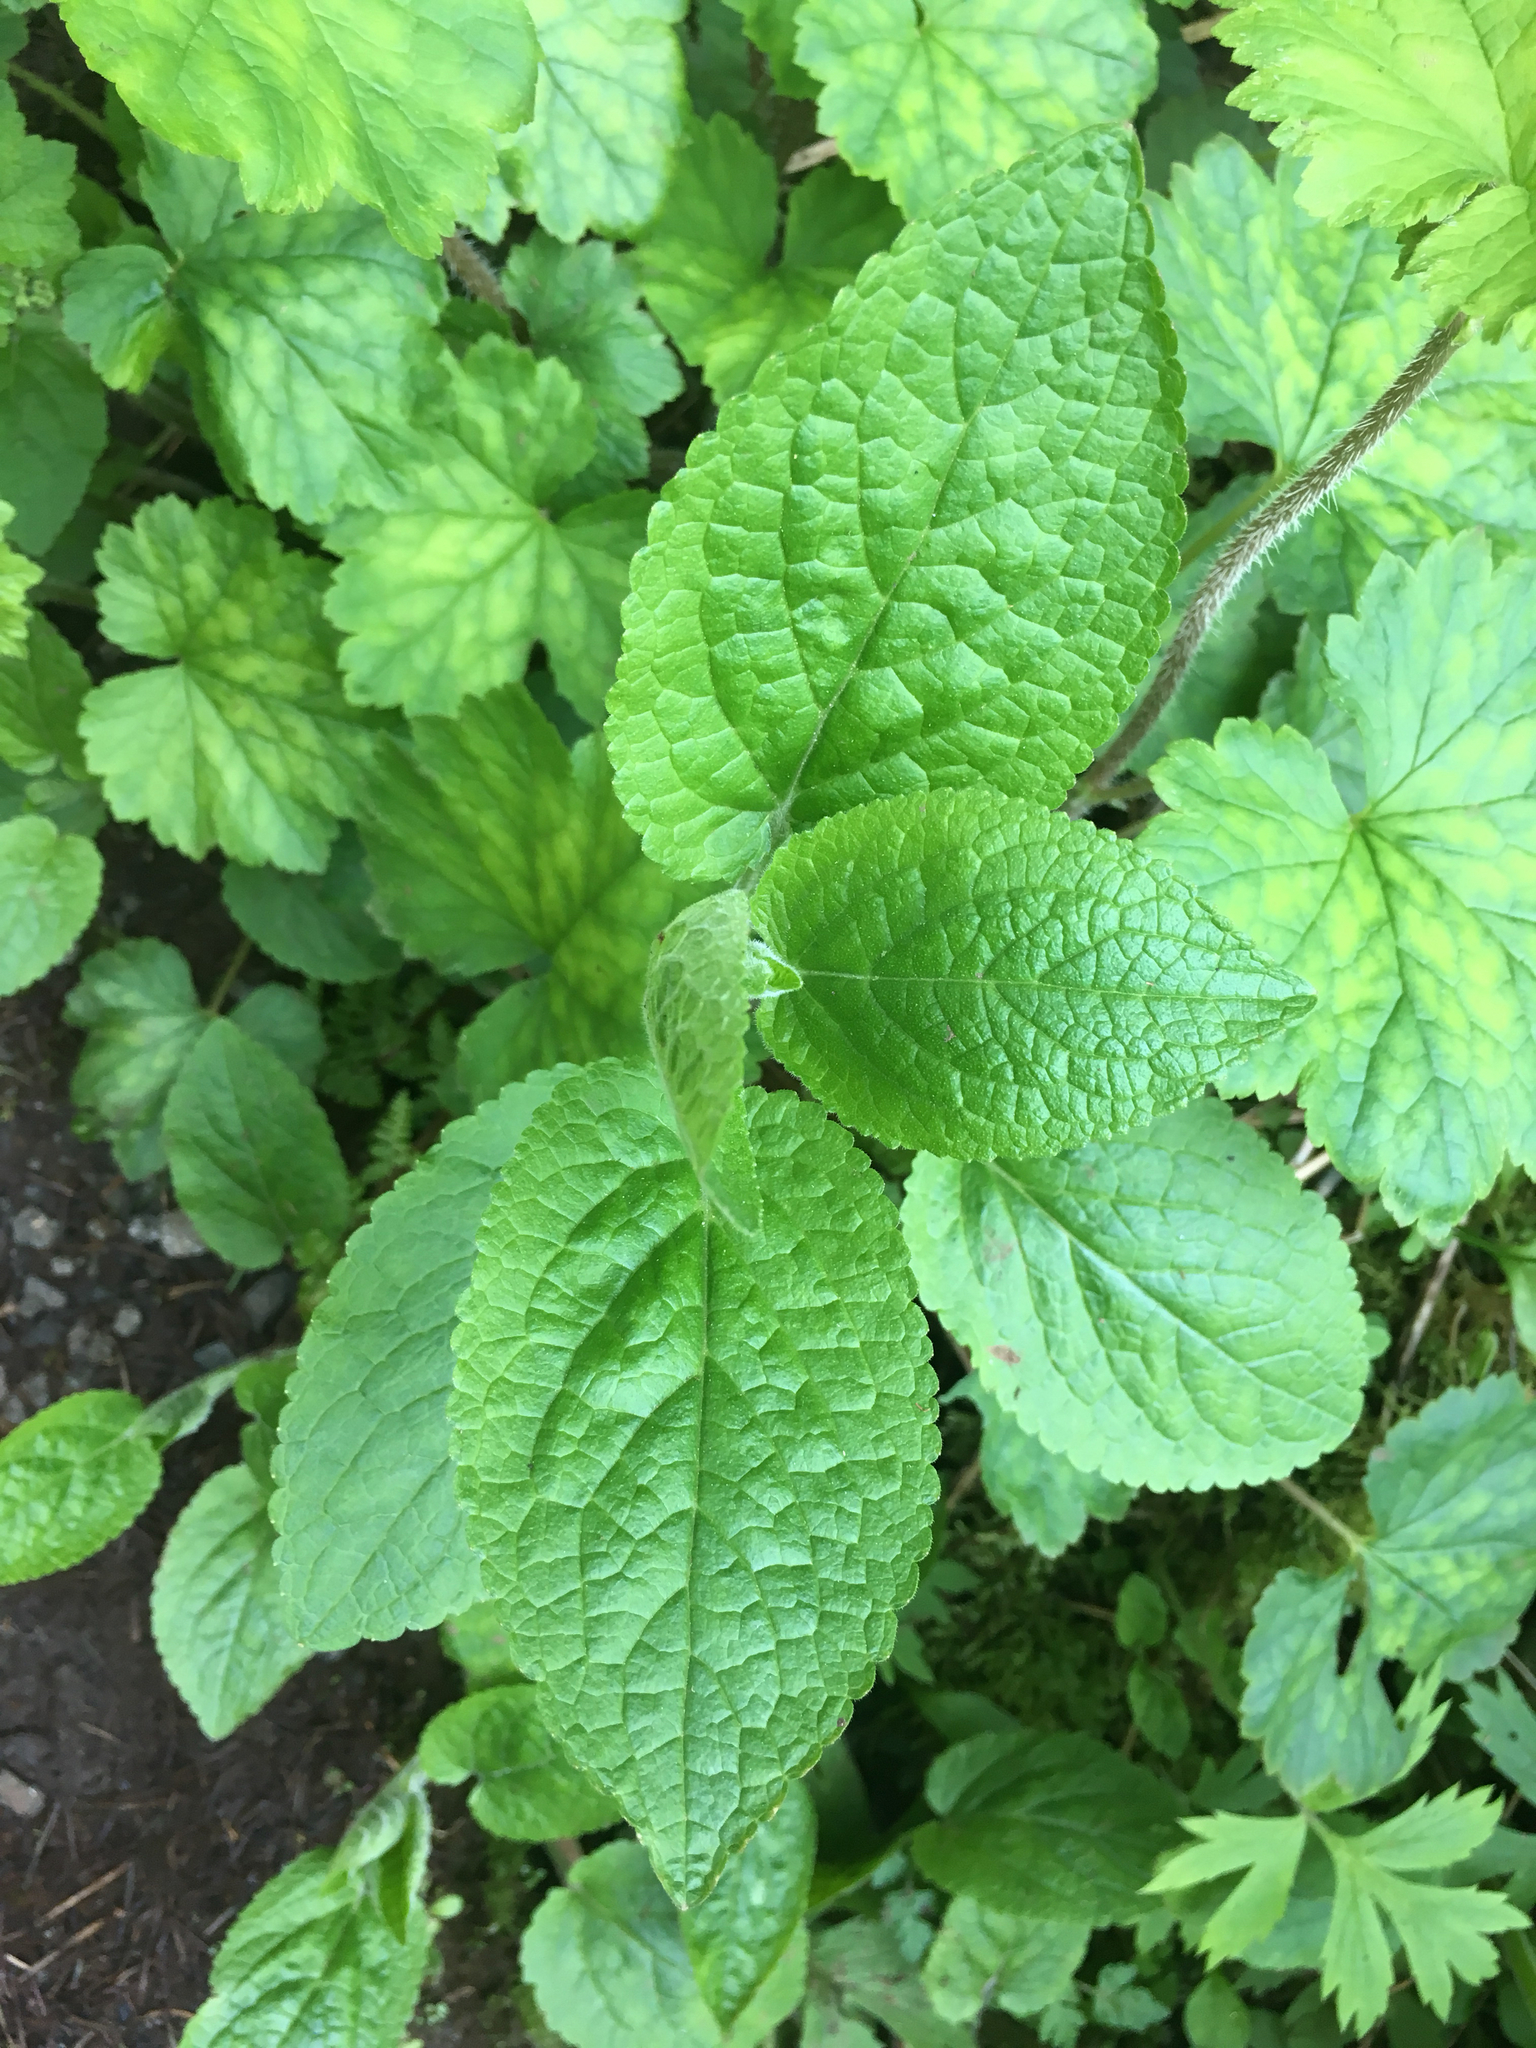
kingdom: Plantae
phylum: Tracheophyta
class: Magnoliopsida
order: Lamiales
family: Lamiaceae
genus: Stachys
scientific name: Stachys chamissonis
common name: Coastal hedge-nettle
